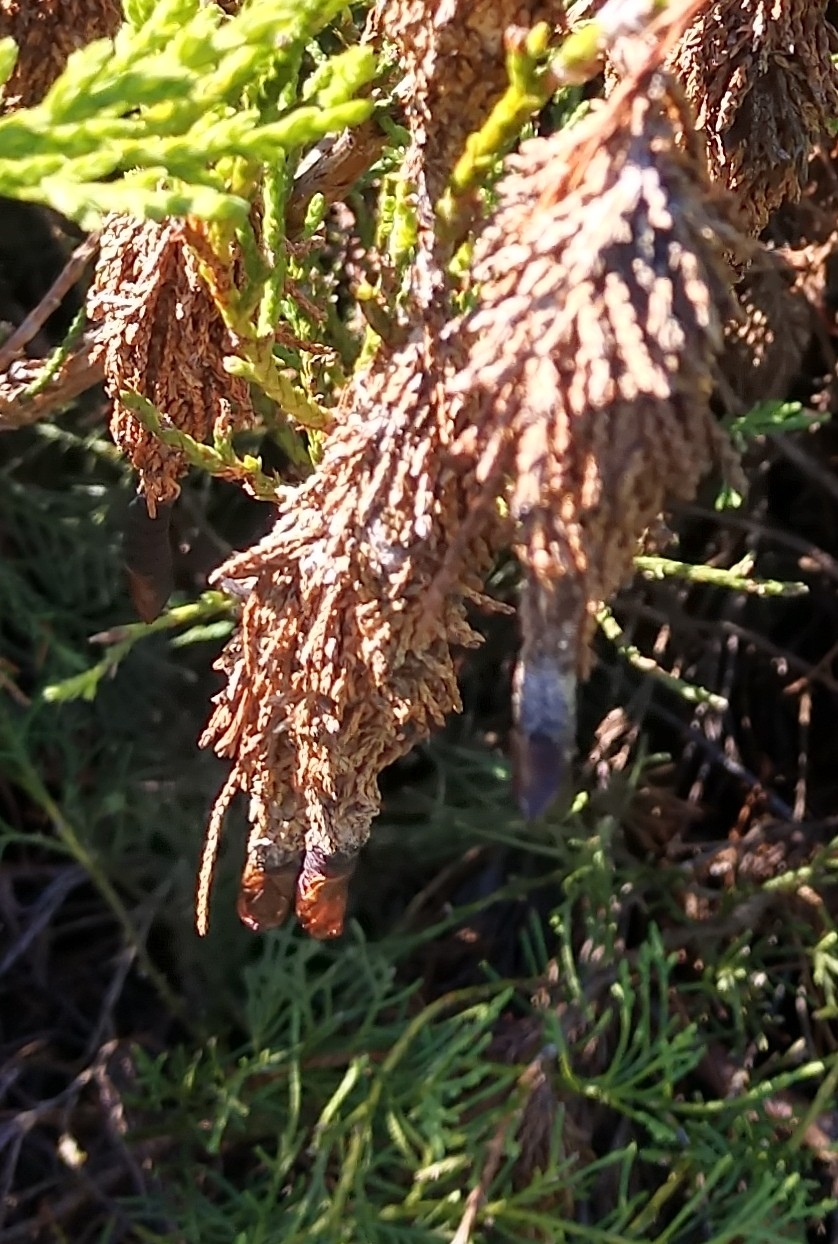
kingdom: Animalia
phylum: Arthropoda
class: Insecta
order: Lepidoptera
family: Psychidae
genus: Thyridopteryx
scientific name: Thyridopteryx ephemeraeformis
